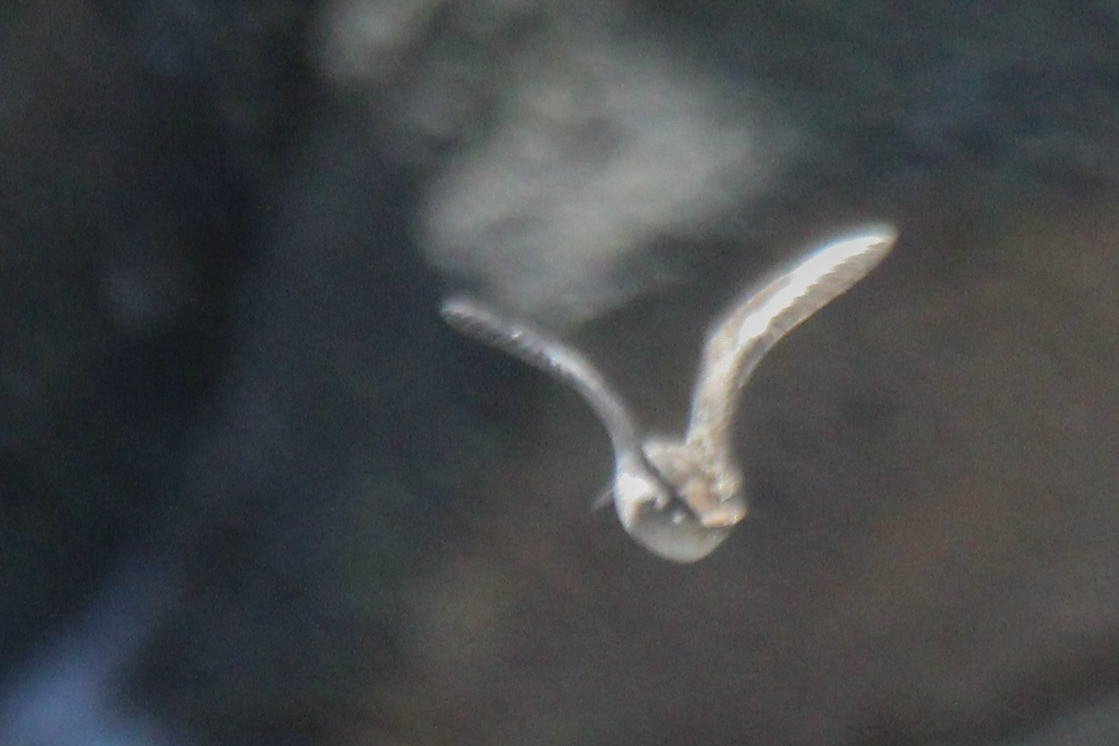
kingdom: Animalia
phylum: Chordata
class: Aves
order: Charadriiformes
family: Scolopacidae
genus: Gallinago
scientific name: Gallinago solitaria
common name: Solitary snipe
